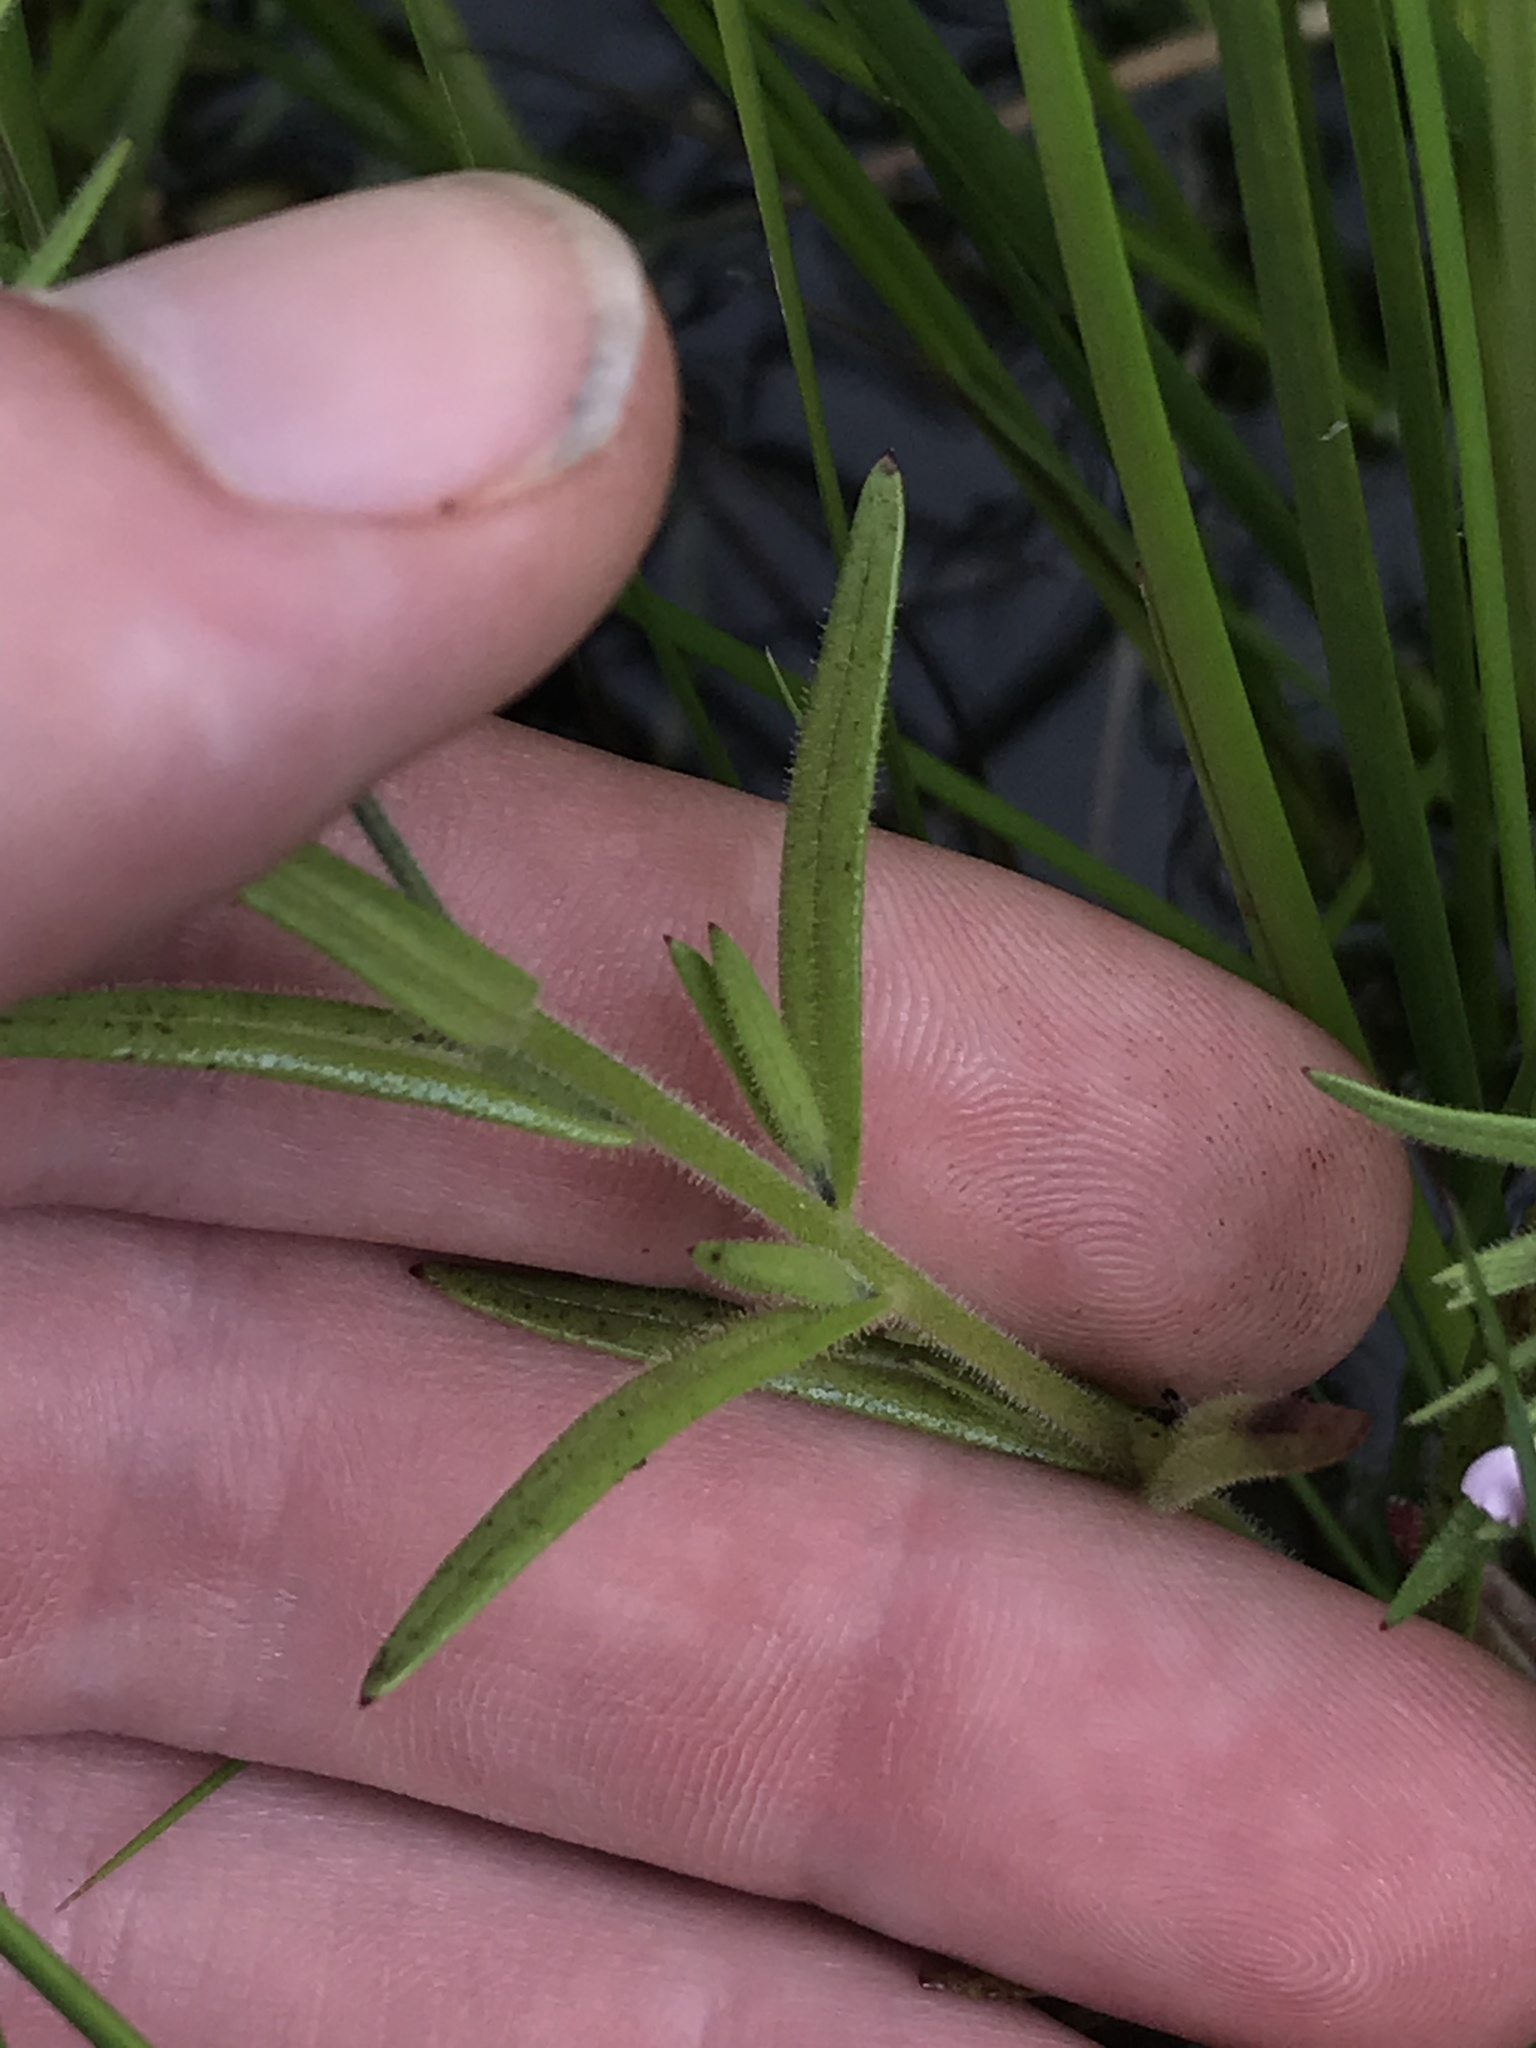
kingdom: Plantae
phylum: Tracheophyta
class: Magnoliopsida
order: Ericales
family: Polemoniaceae
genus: Phlox
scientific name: Phlox gracilis
